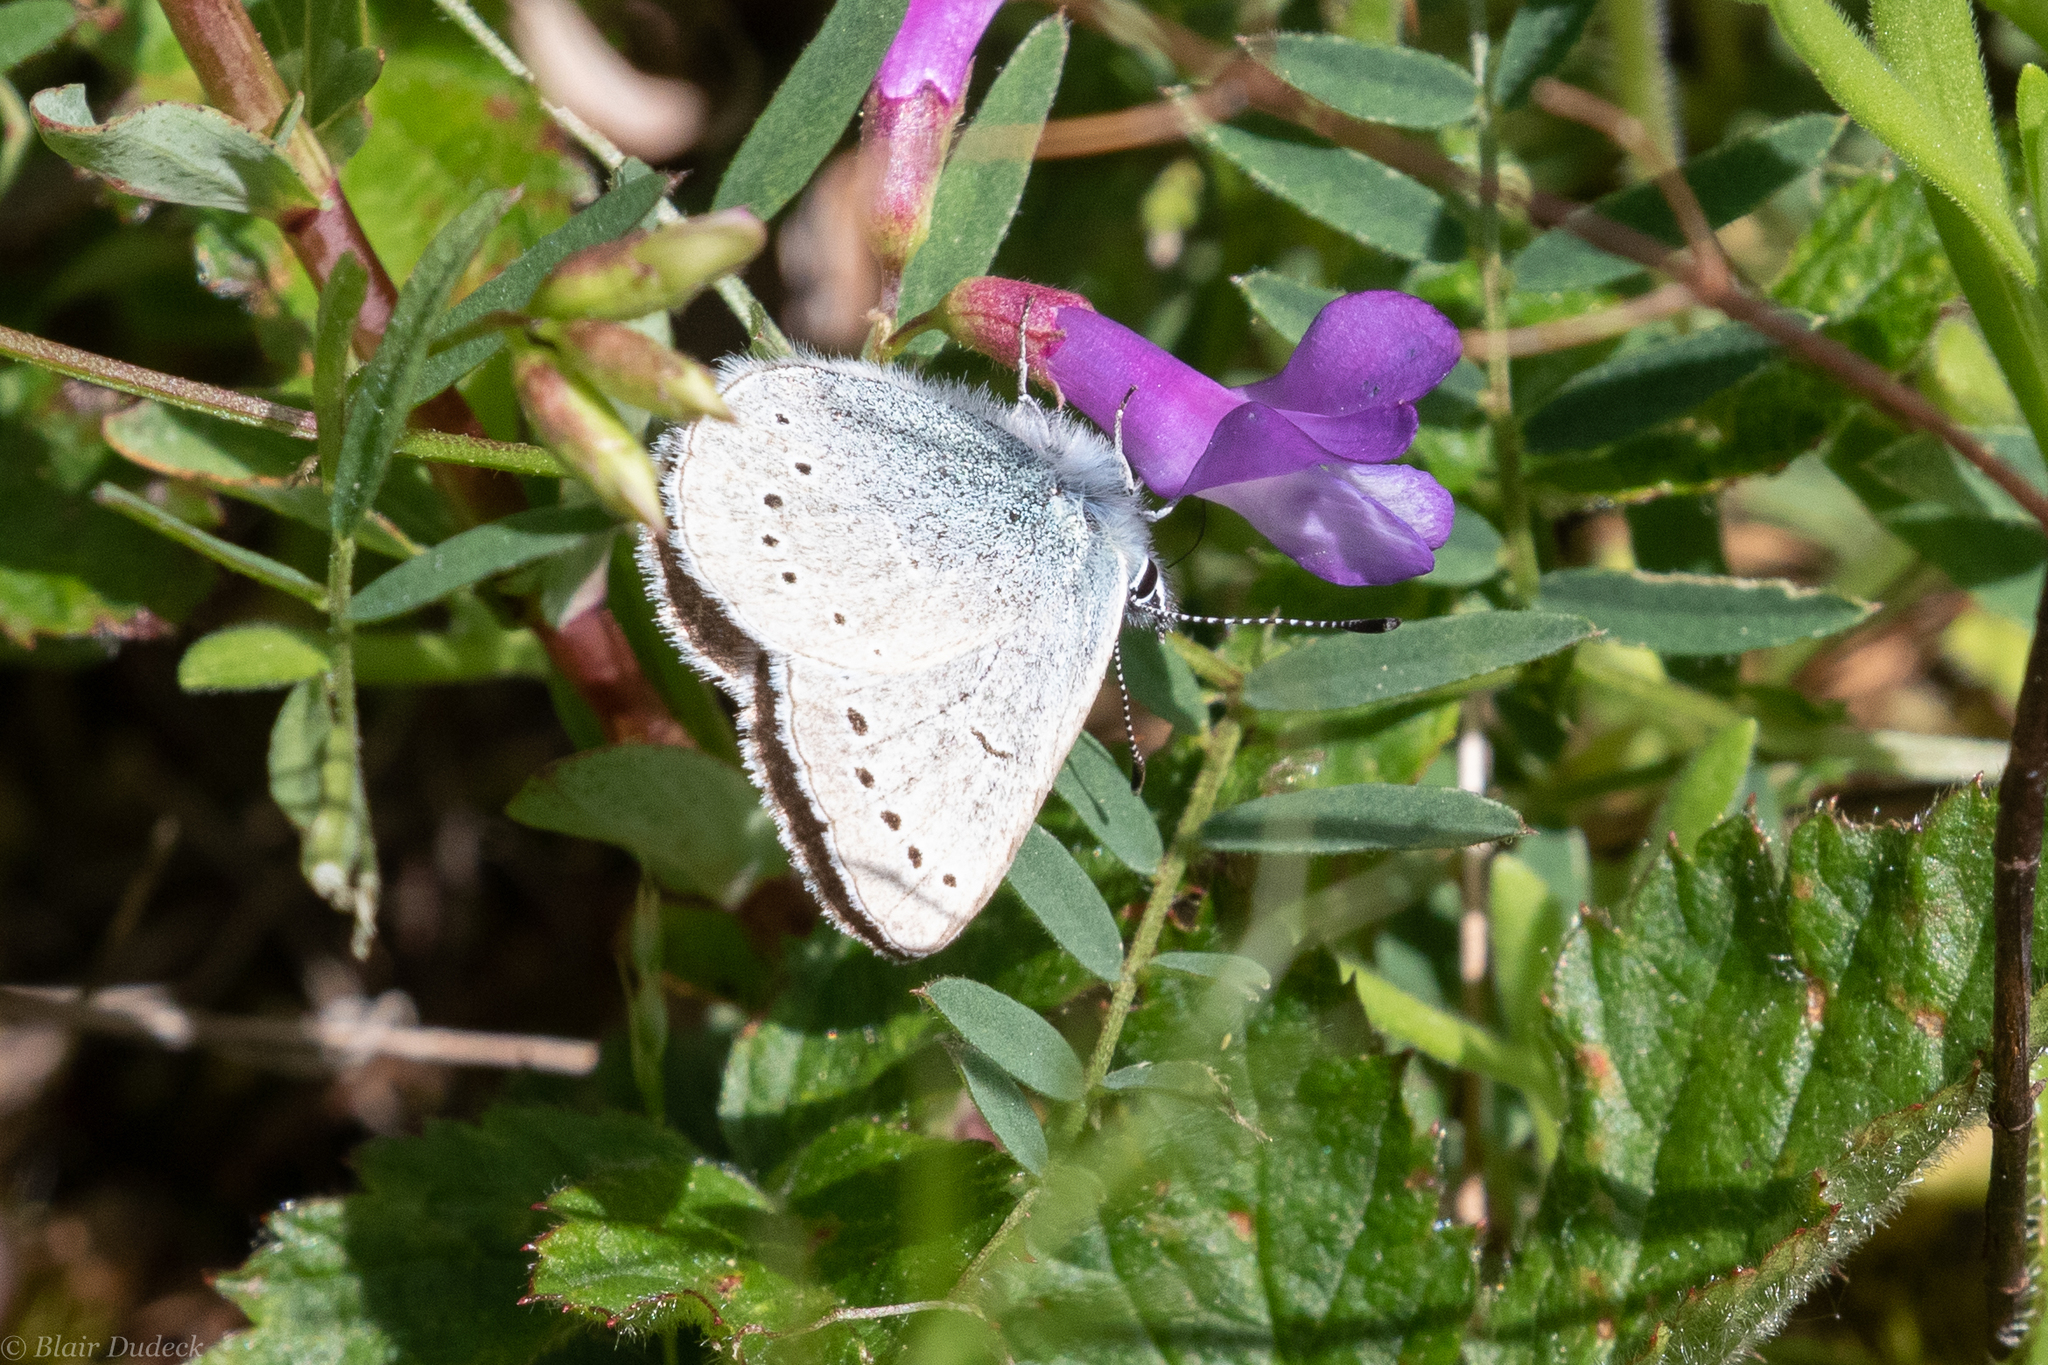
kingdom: Animalia
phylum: Arthropoda
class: Insecta
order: Lepidoptera
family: Lycaenidae
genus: Glaucopsyche
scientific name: Glaucopsyche lygdamus
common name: Silvery blue
